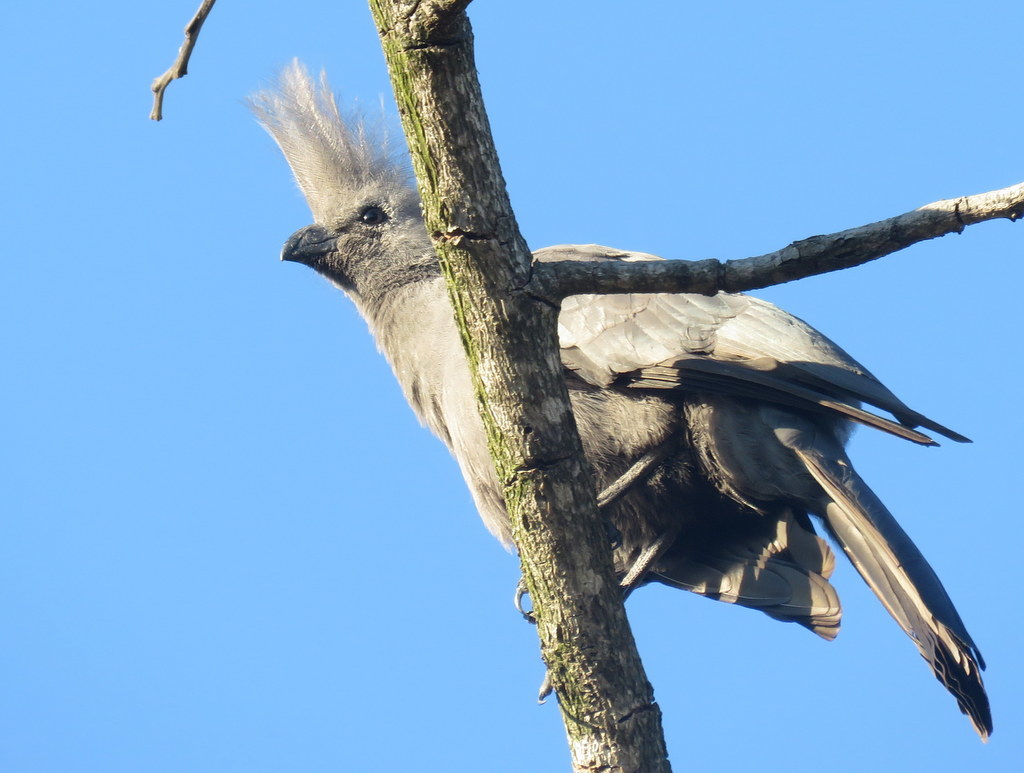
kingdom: Animalia
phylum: Chordata
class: Aves
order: Musophagiformes
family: Musophagidae
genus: Corythaixoides
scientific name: Corythaixoides concolor
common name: Grey go-away-bird
